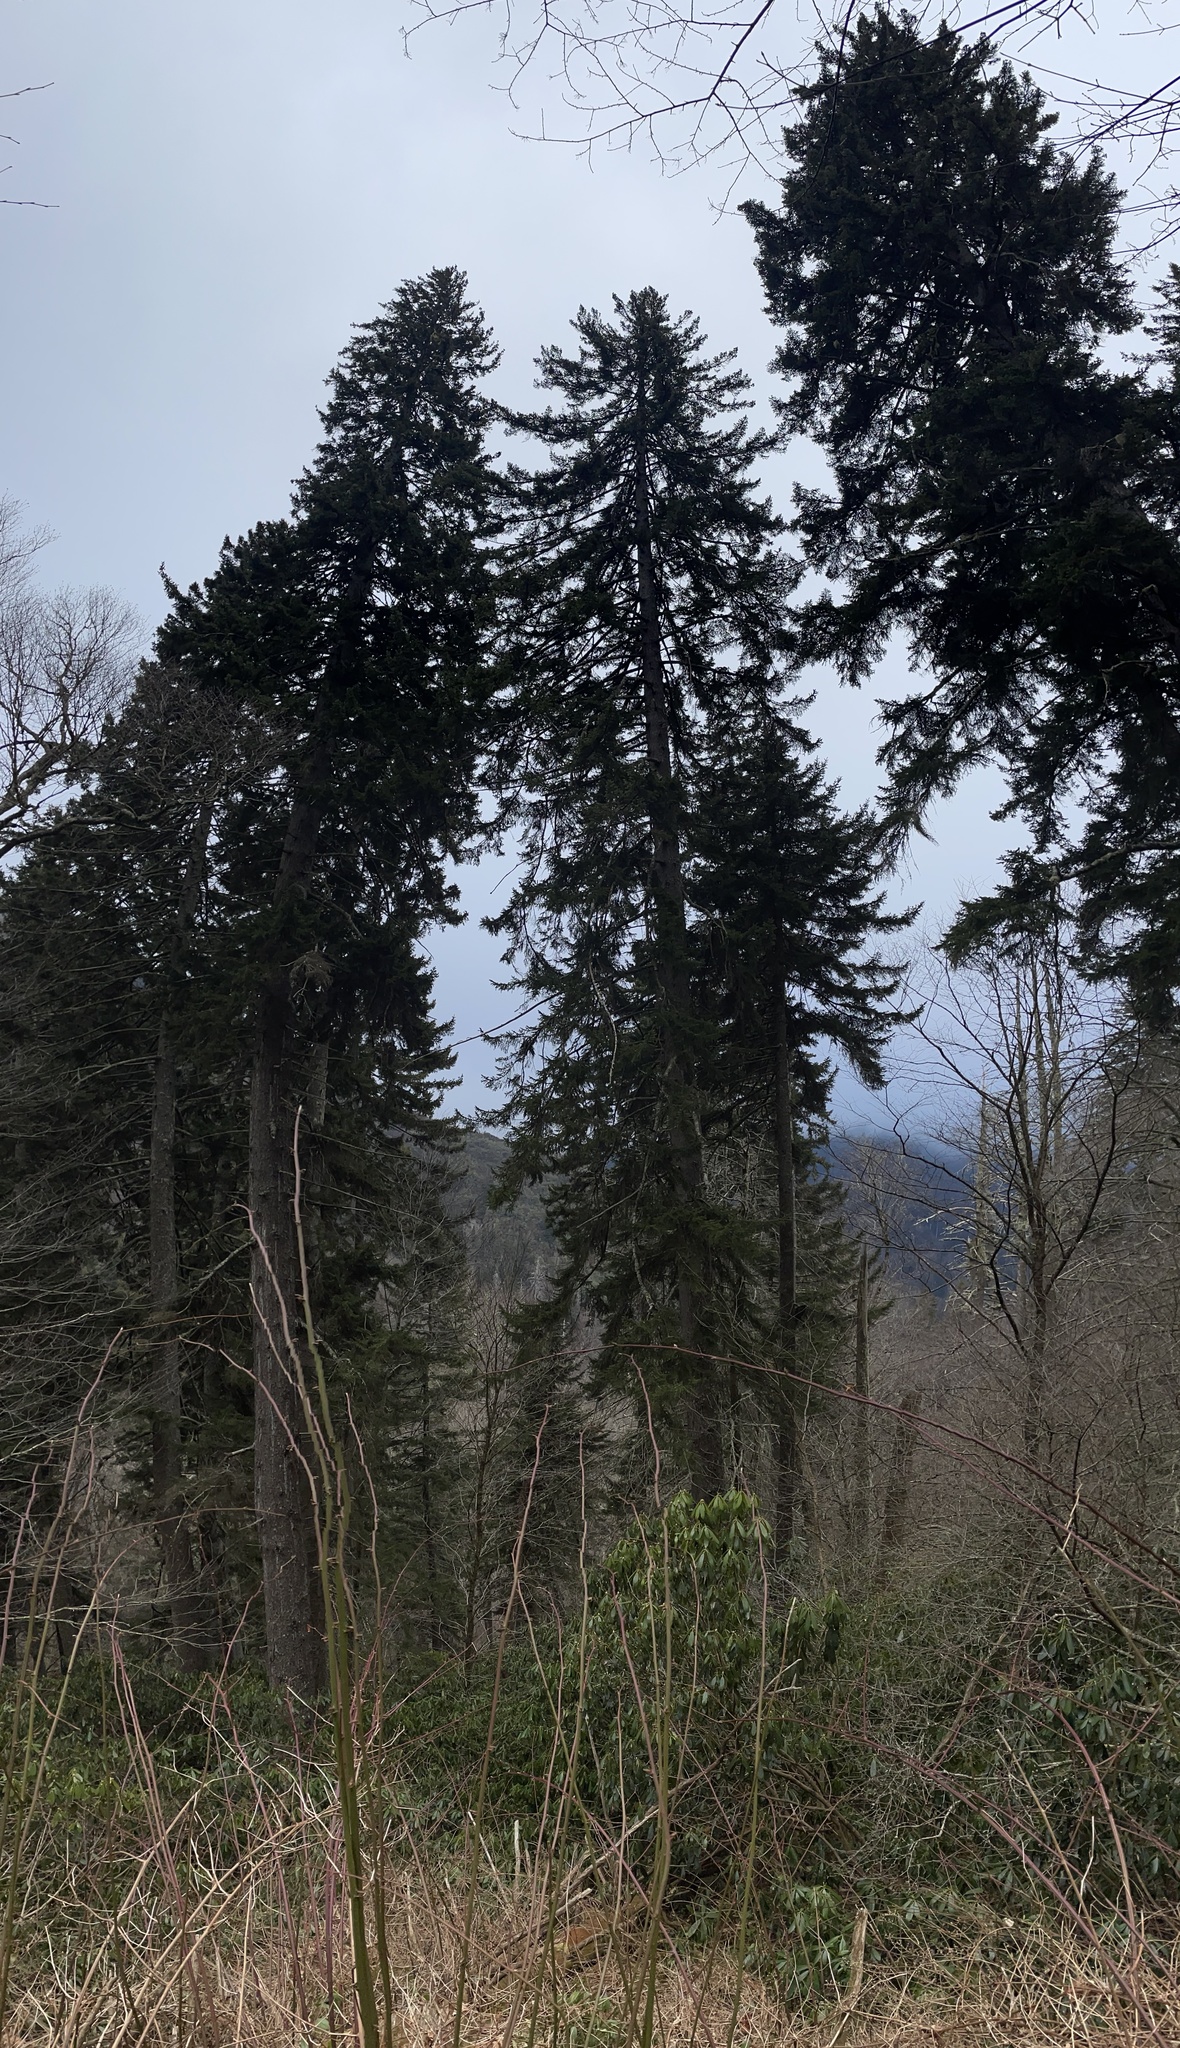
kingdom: Plantae
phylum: Tracheophyta
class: Pinopsida
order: Pinales
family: Pinaceae
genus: Picea
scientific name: Picea rubens
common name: Red spruce
